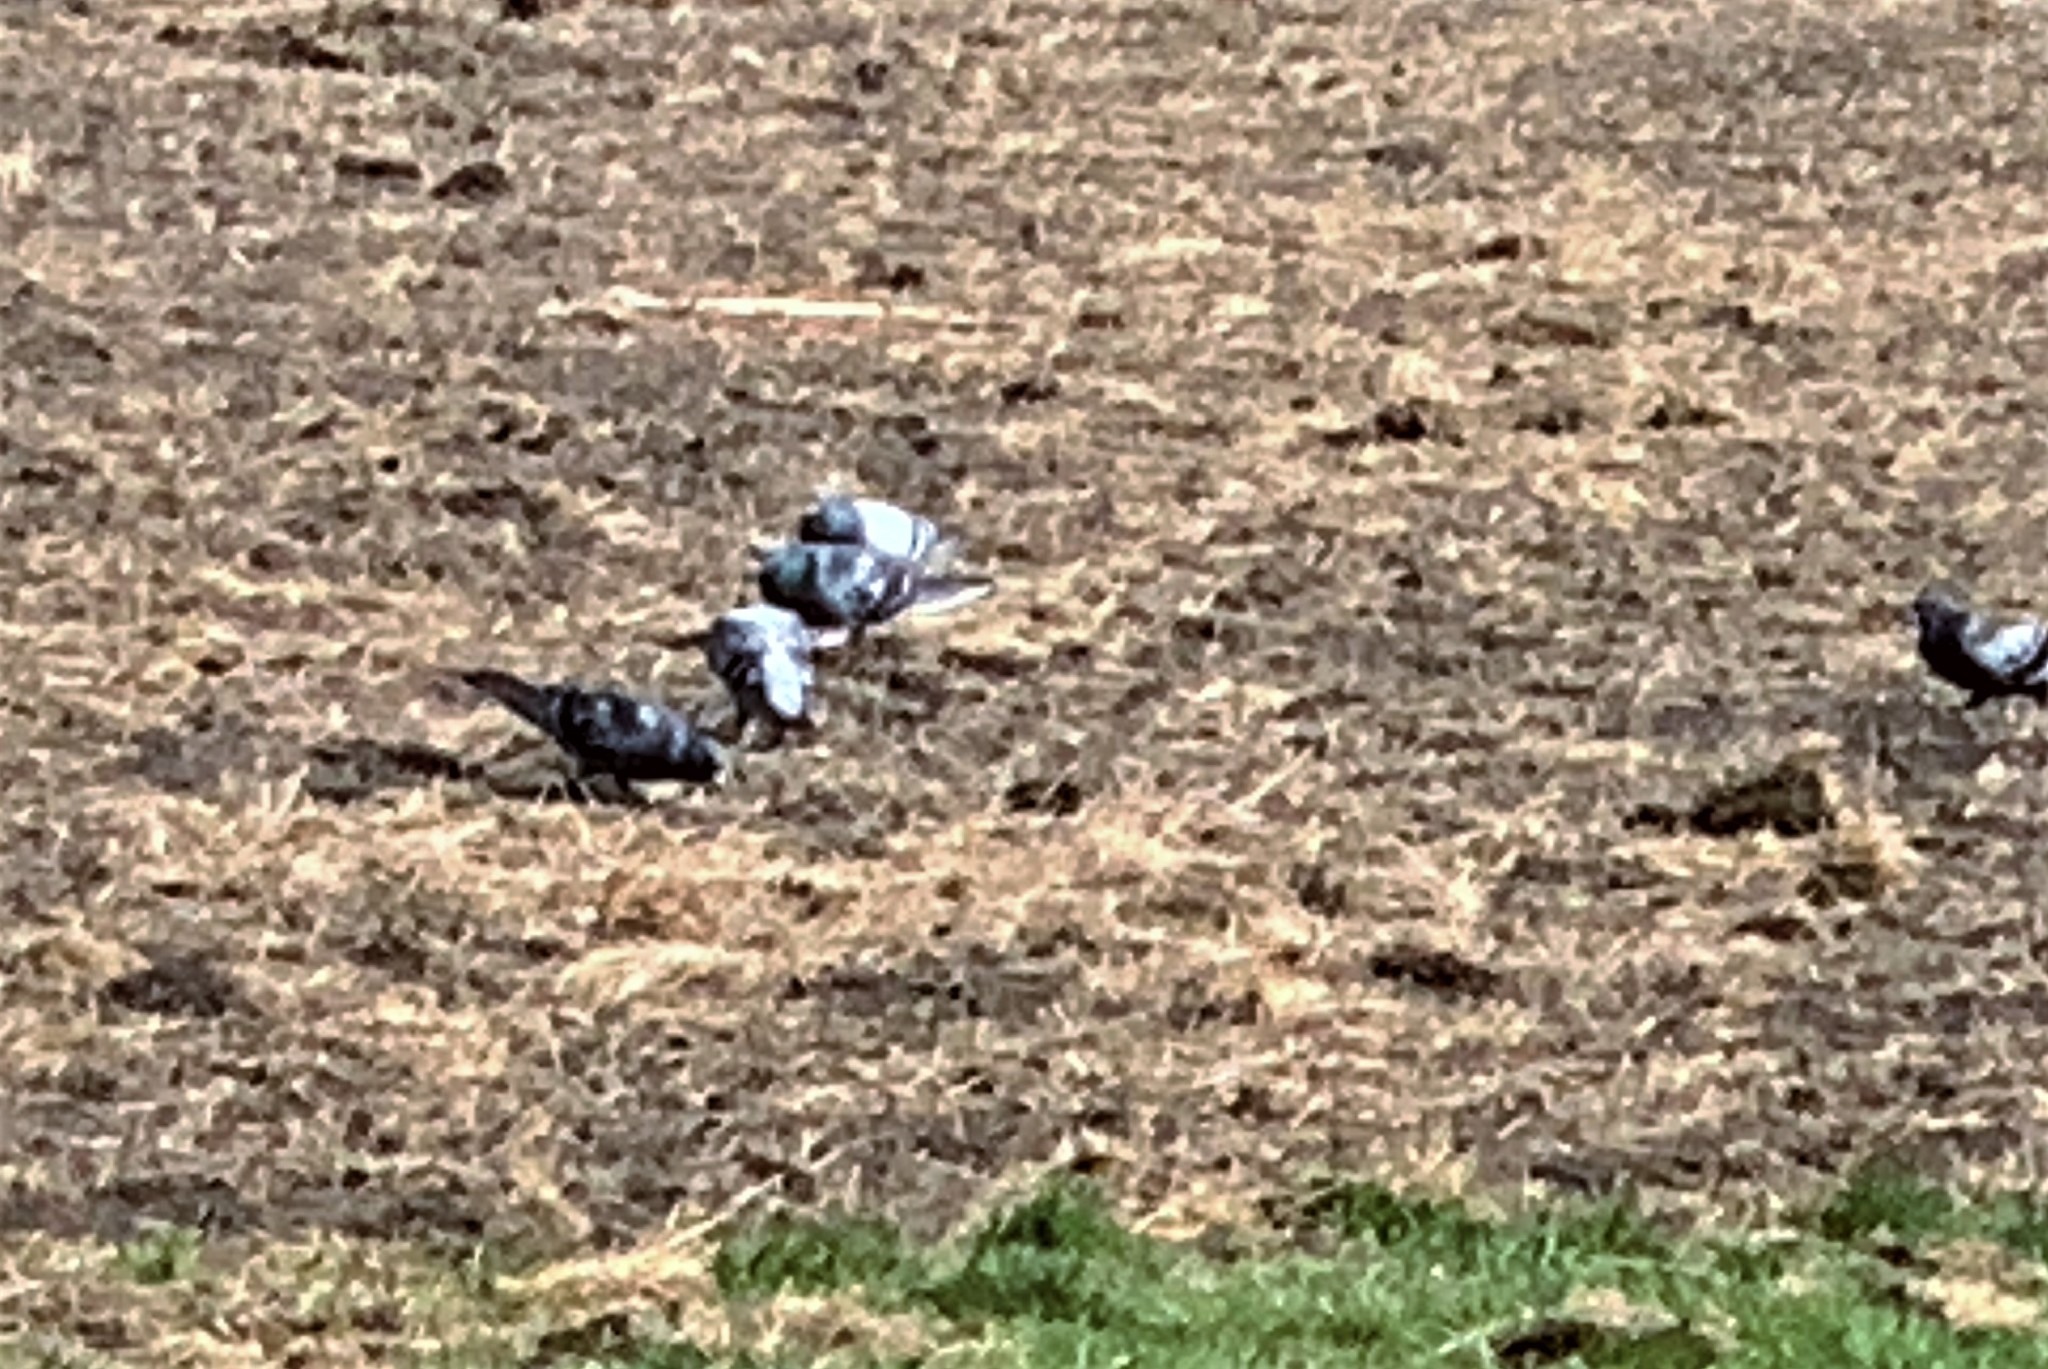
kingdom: Animalia
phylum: Chordata
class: Aves
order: Columbiformes
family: Columbidae
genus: Columba
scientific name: Columba livia
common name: Rock pigeon
